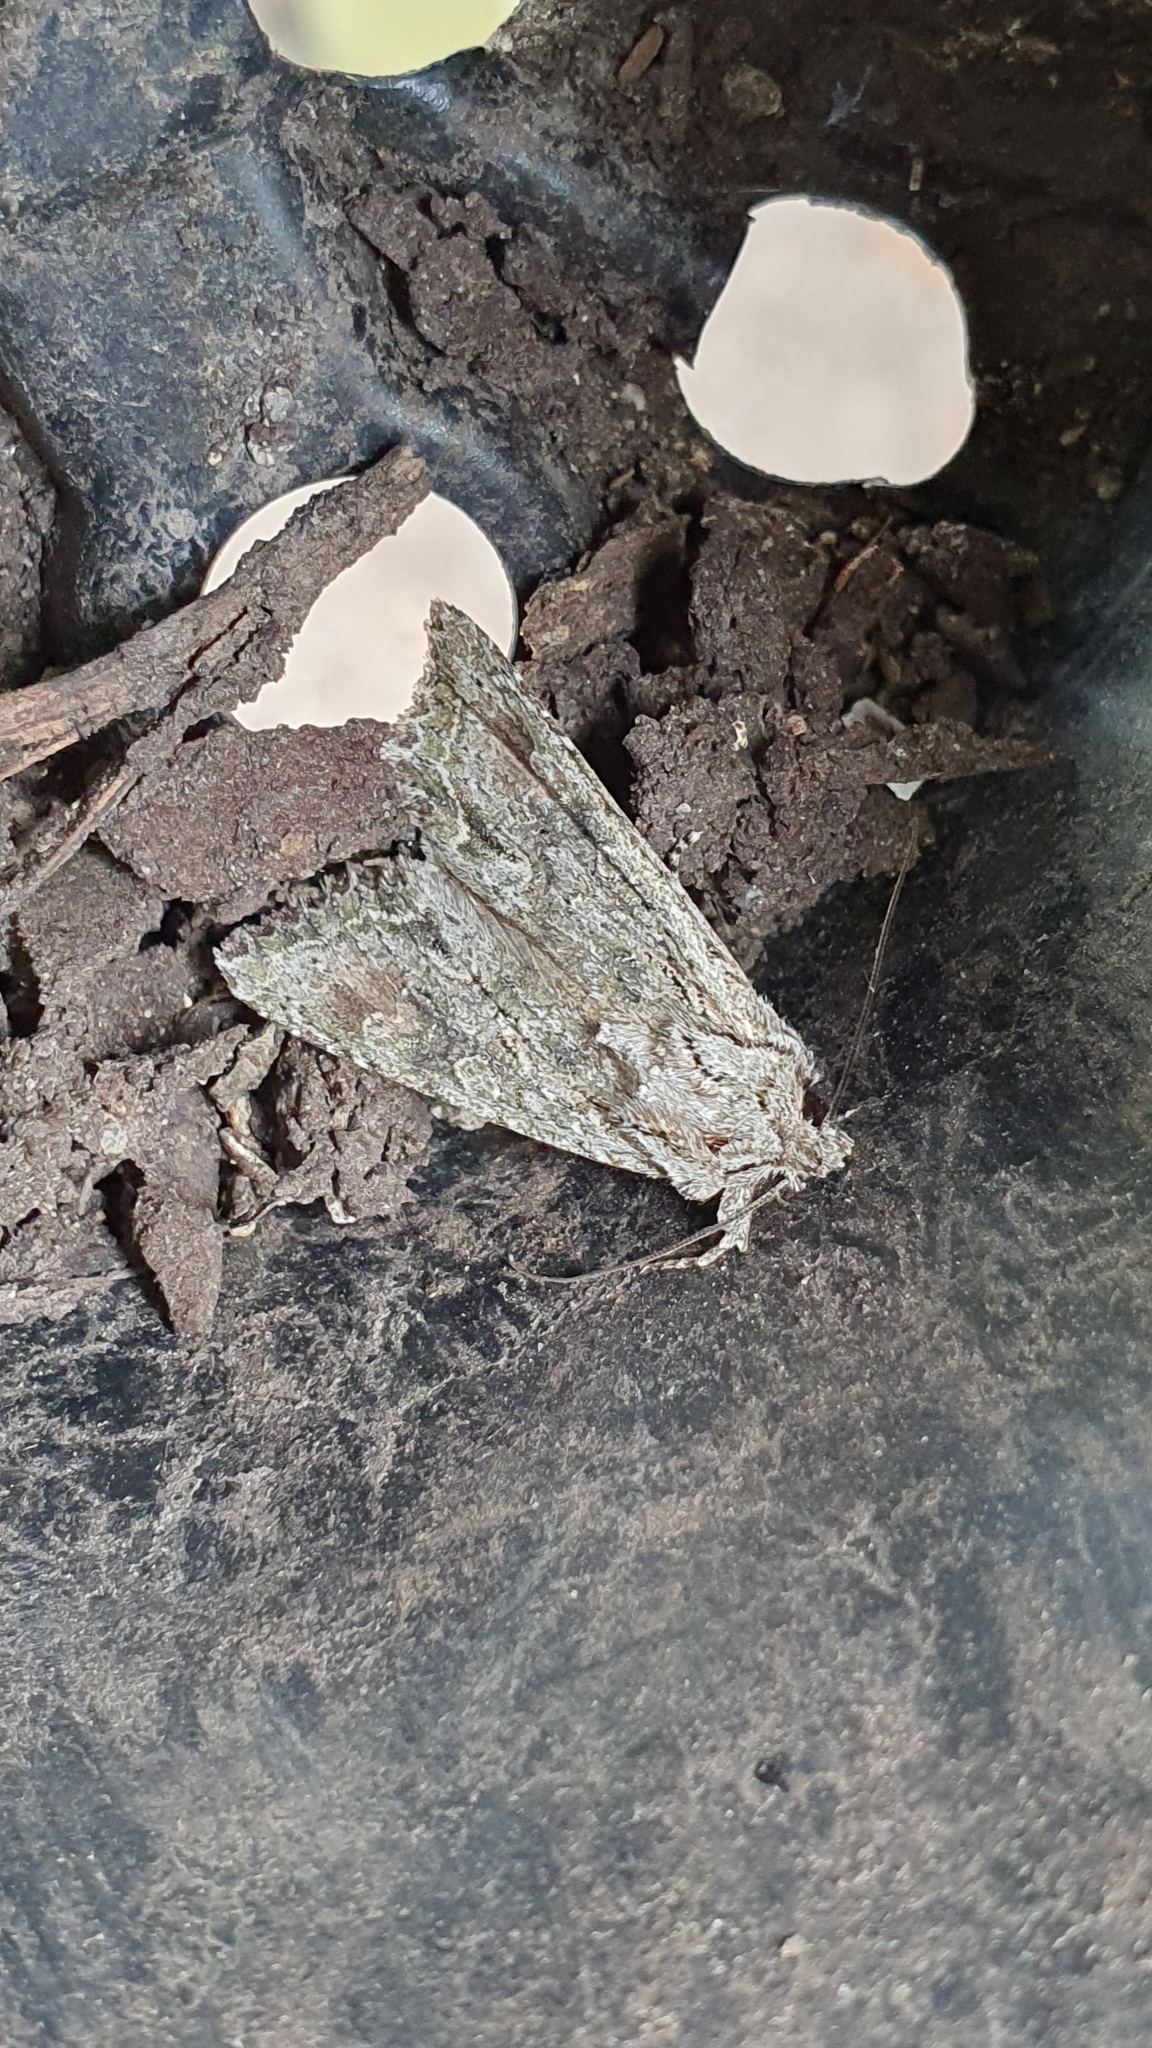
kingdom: Animalia
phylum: Arthropoda
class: Insecta
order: Lepidoptera
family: Noctuidae
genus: Ichneutica
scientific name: Ichneutica mutans
